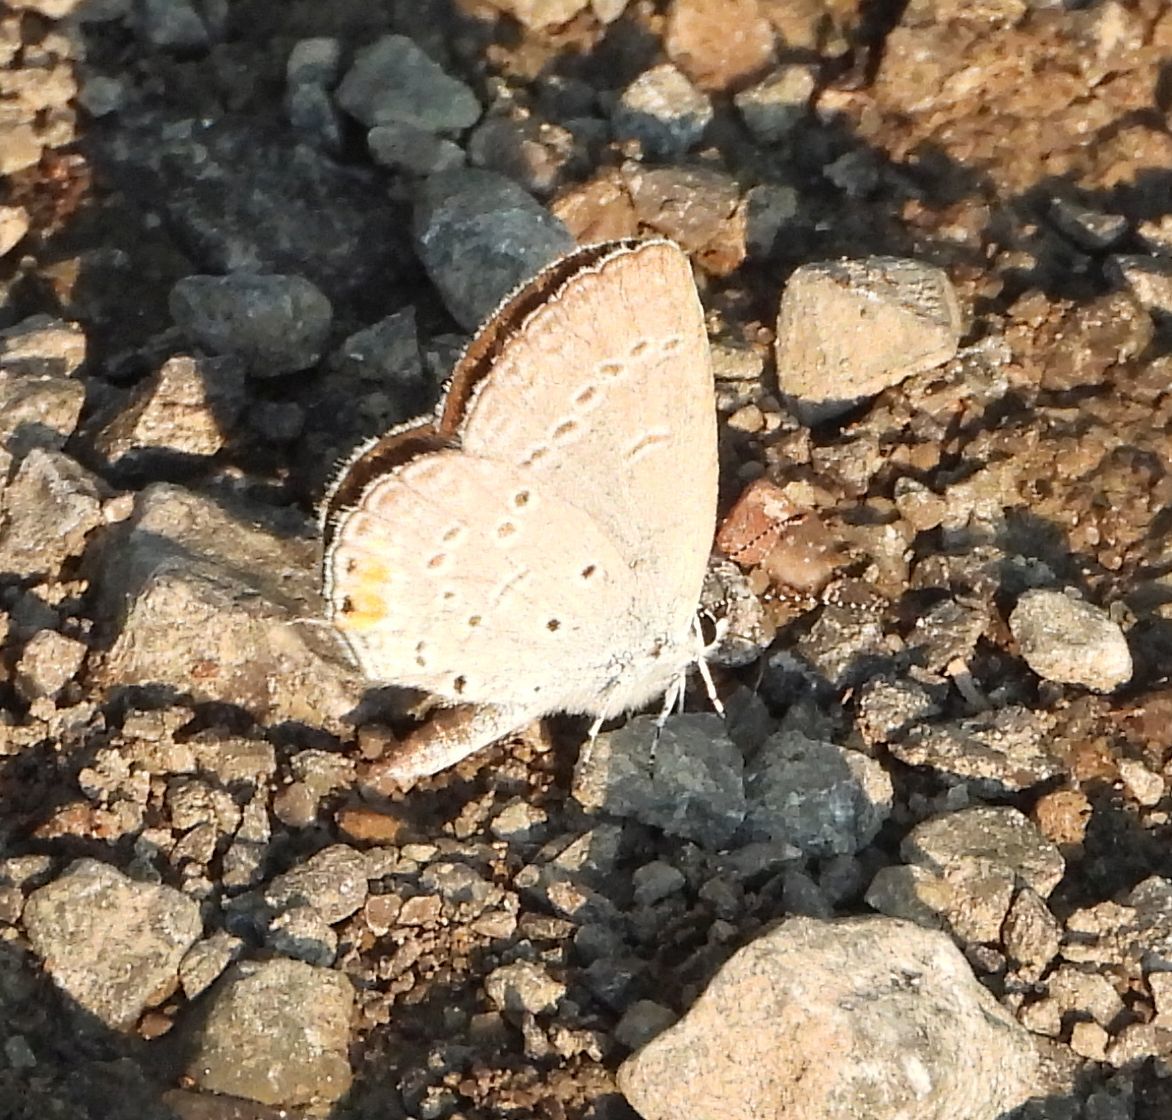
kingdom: Animalia
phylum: Arthropoda
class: Insecta
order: Lepidoptera
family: Lycaenidae
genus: Elkalyce
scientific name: Elkalyce comyntas
